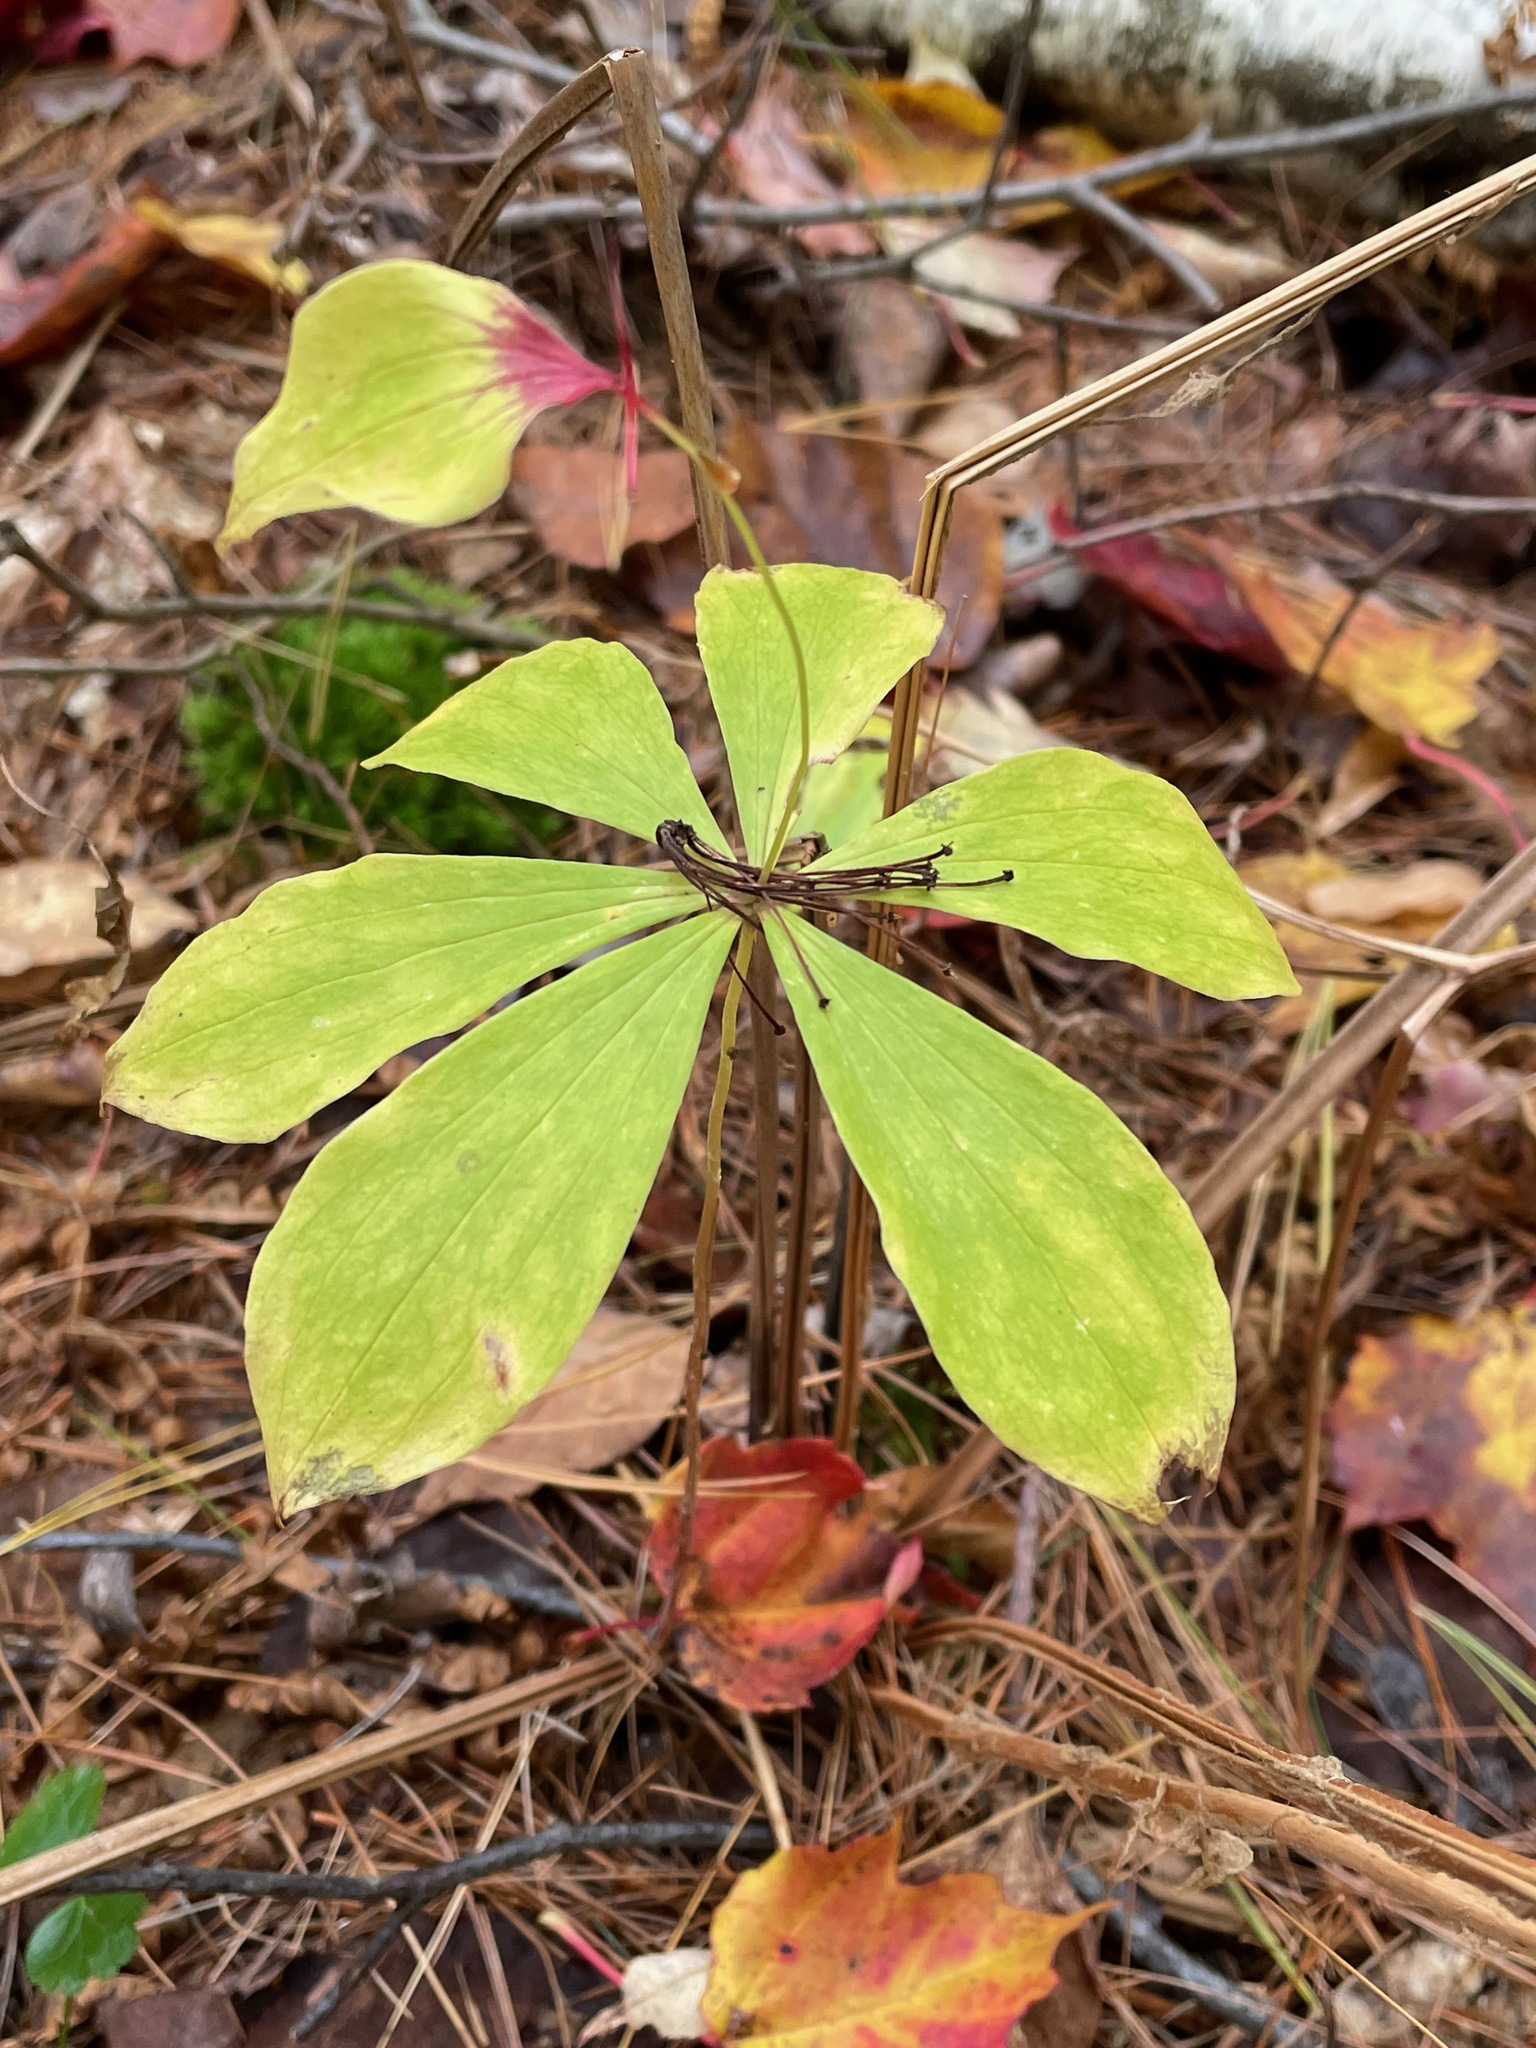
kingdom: Plantae
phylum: Tracheophyta
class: Liliopsida
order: Liliales
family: Liliaceae
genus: Medeola
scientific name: Medeola virginiana
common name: Indian cucumber-root
